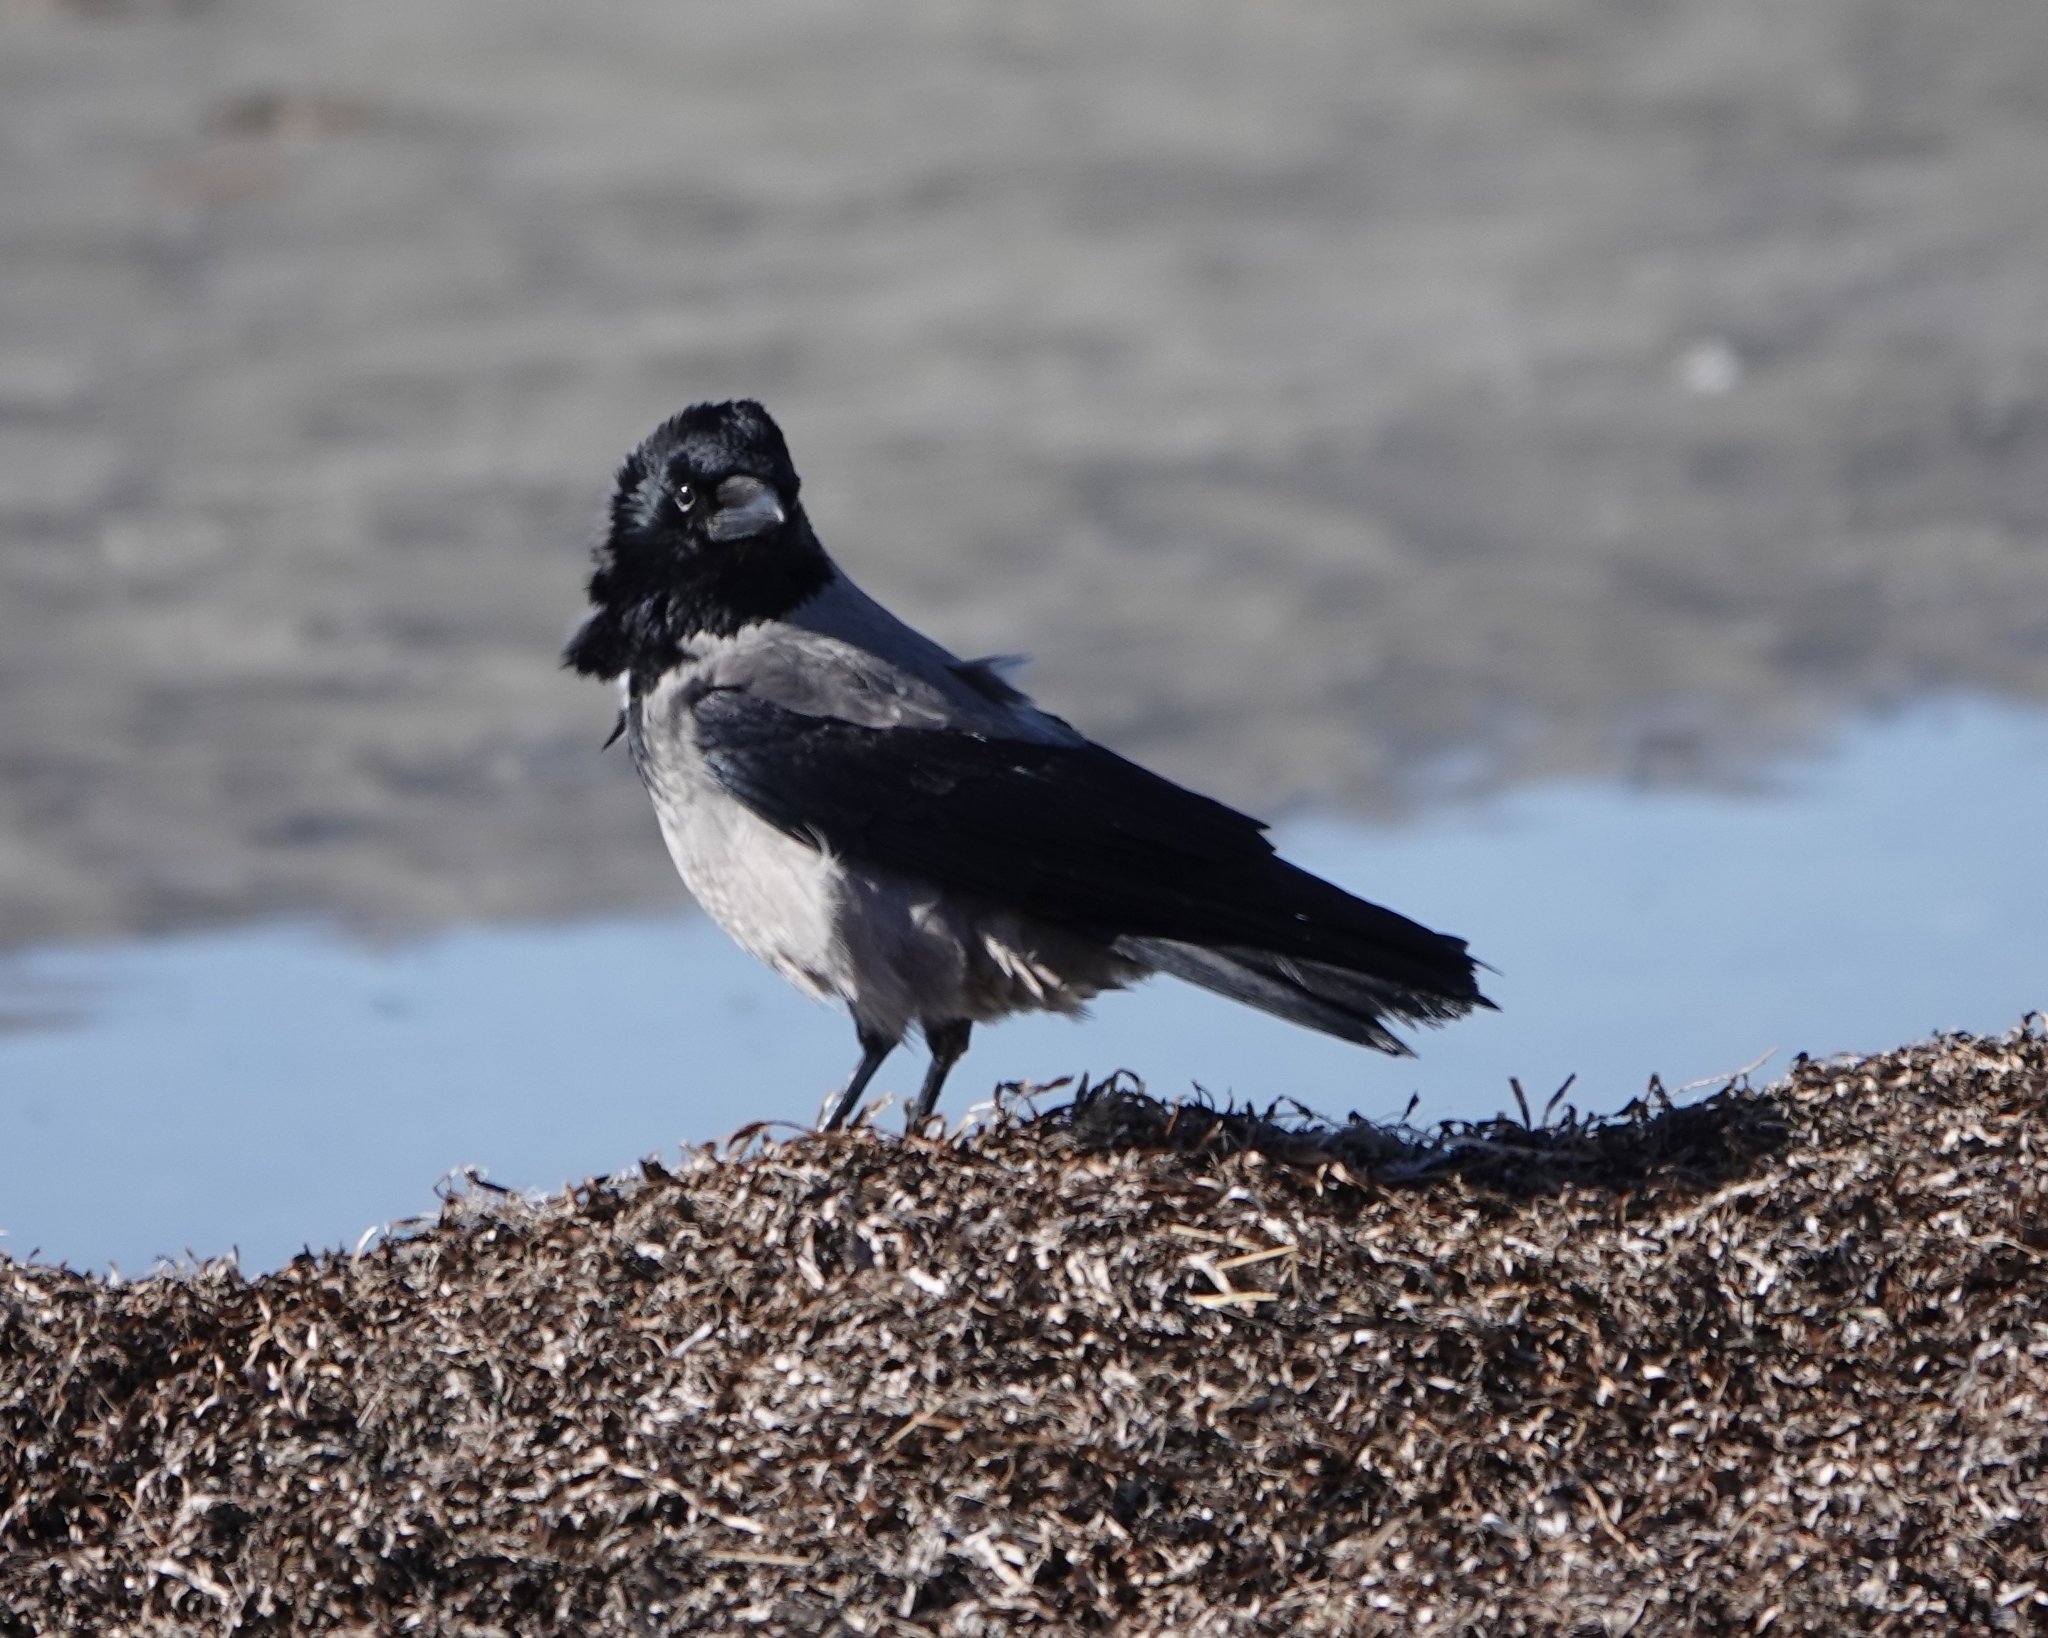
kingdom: Animalia
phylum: Chordata
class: Aves
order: Passeriformes
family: Corvidae
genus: Corvus
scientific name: Corvus cornix
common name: Hooded crow
